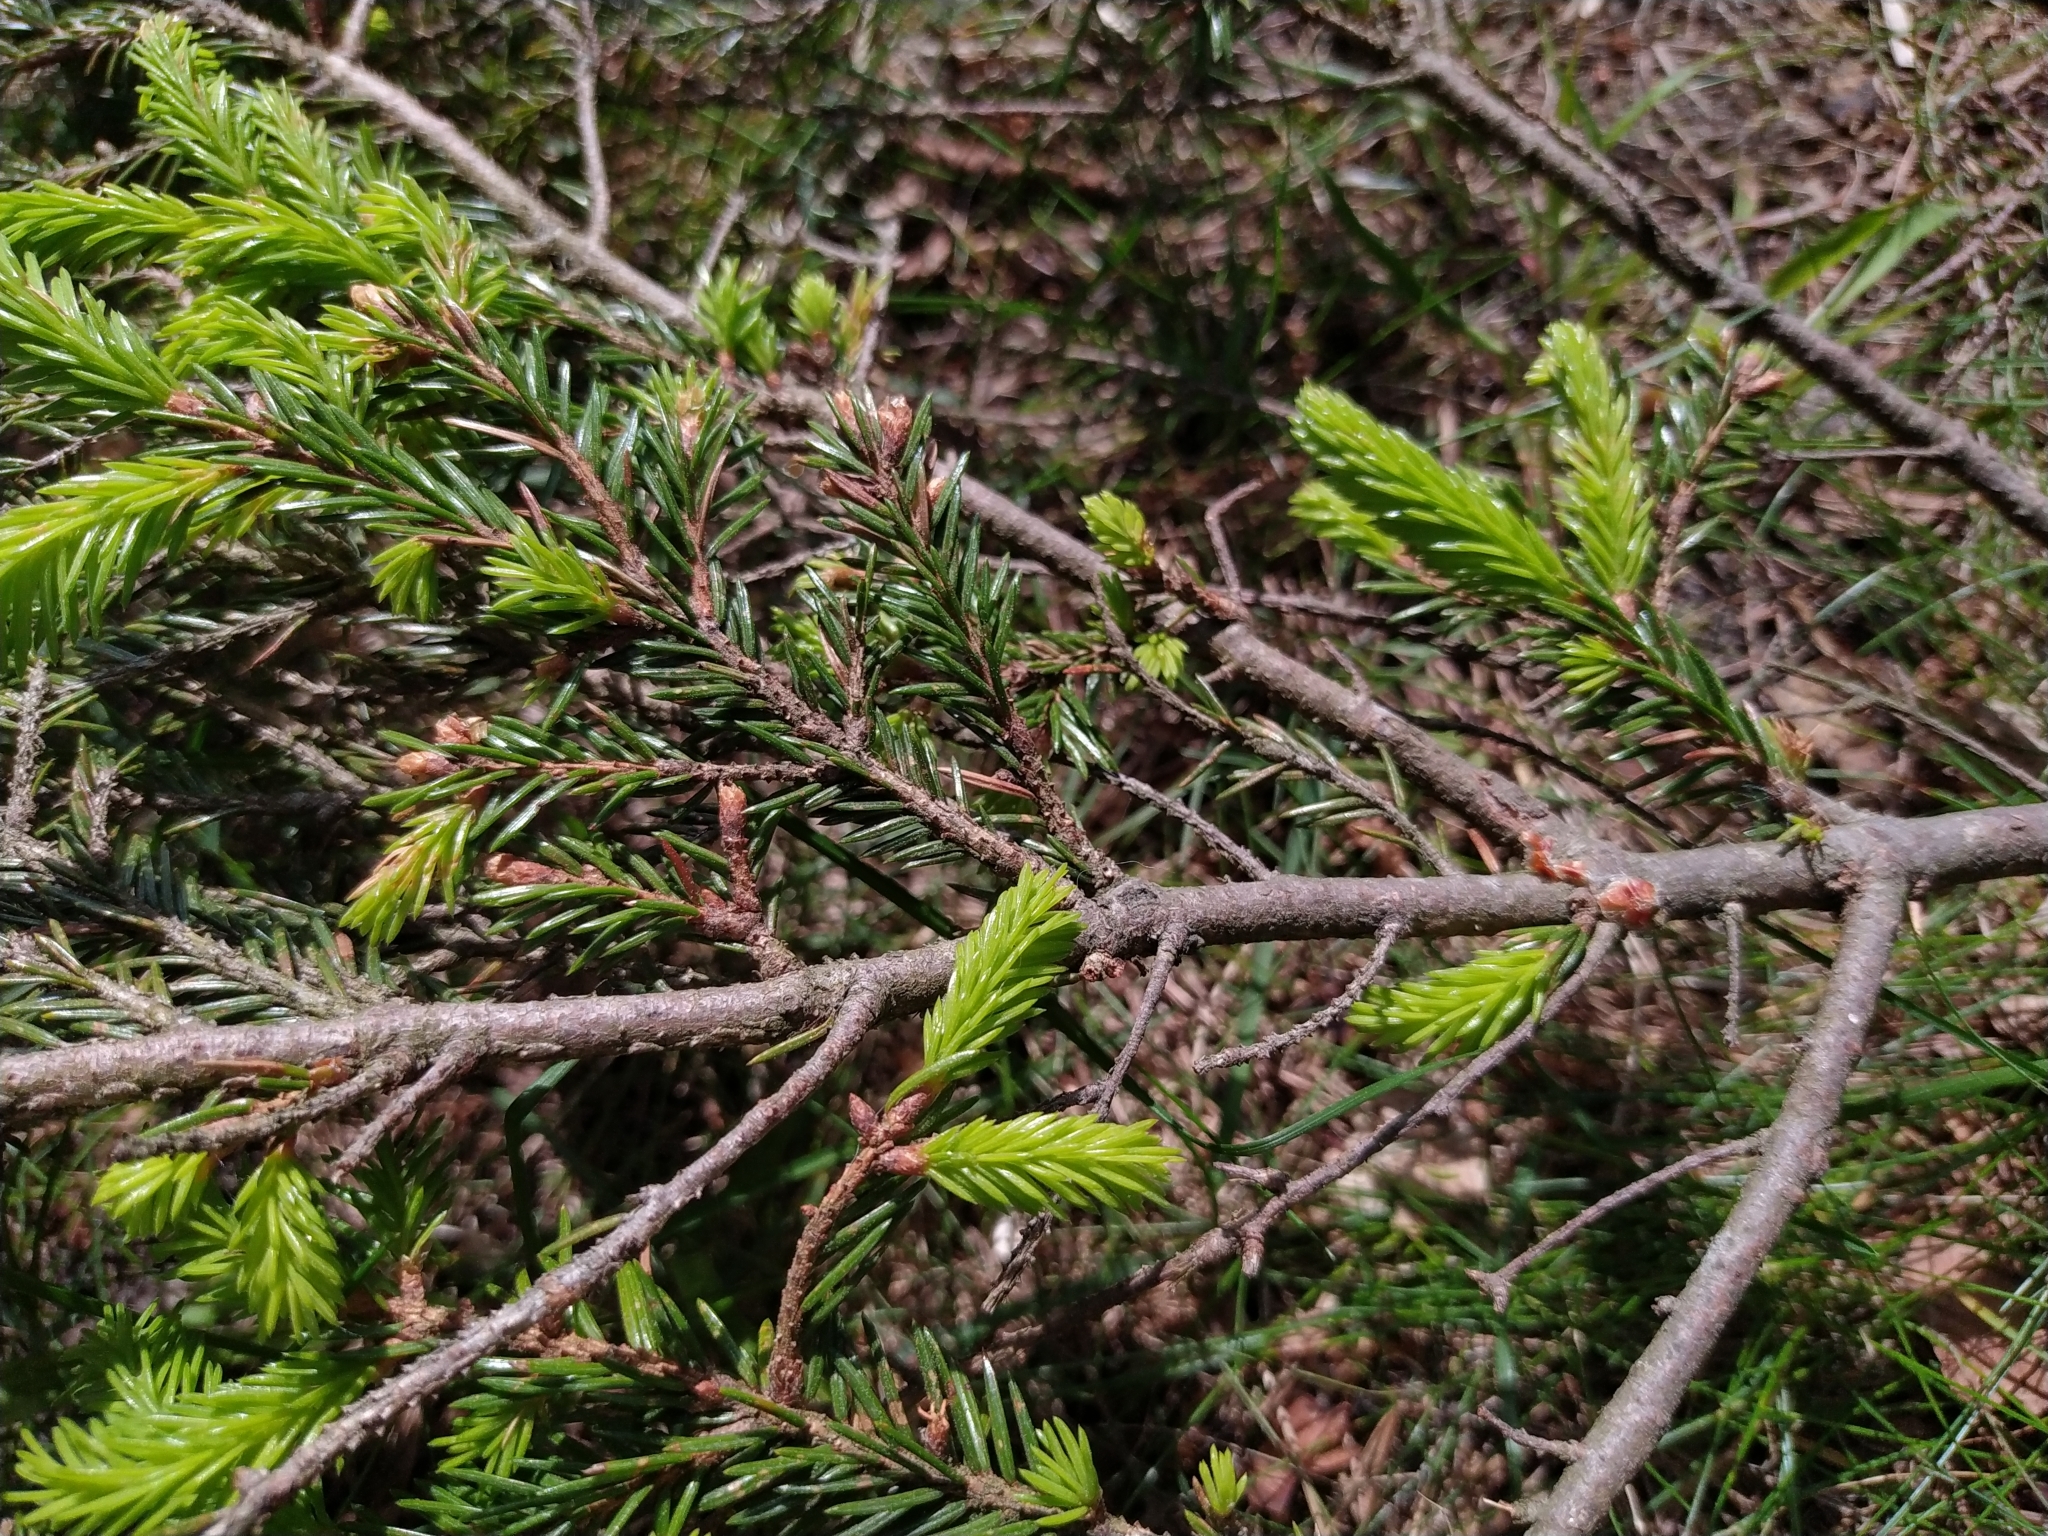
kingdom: Plantae
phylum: Tracheophyta
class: Pinopsida
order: Pinales
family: Pinaceae
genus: Picea
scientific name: Picea abies
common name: Norway spruce
